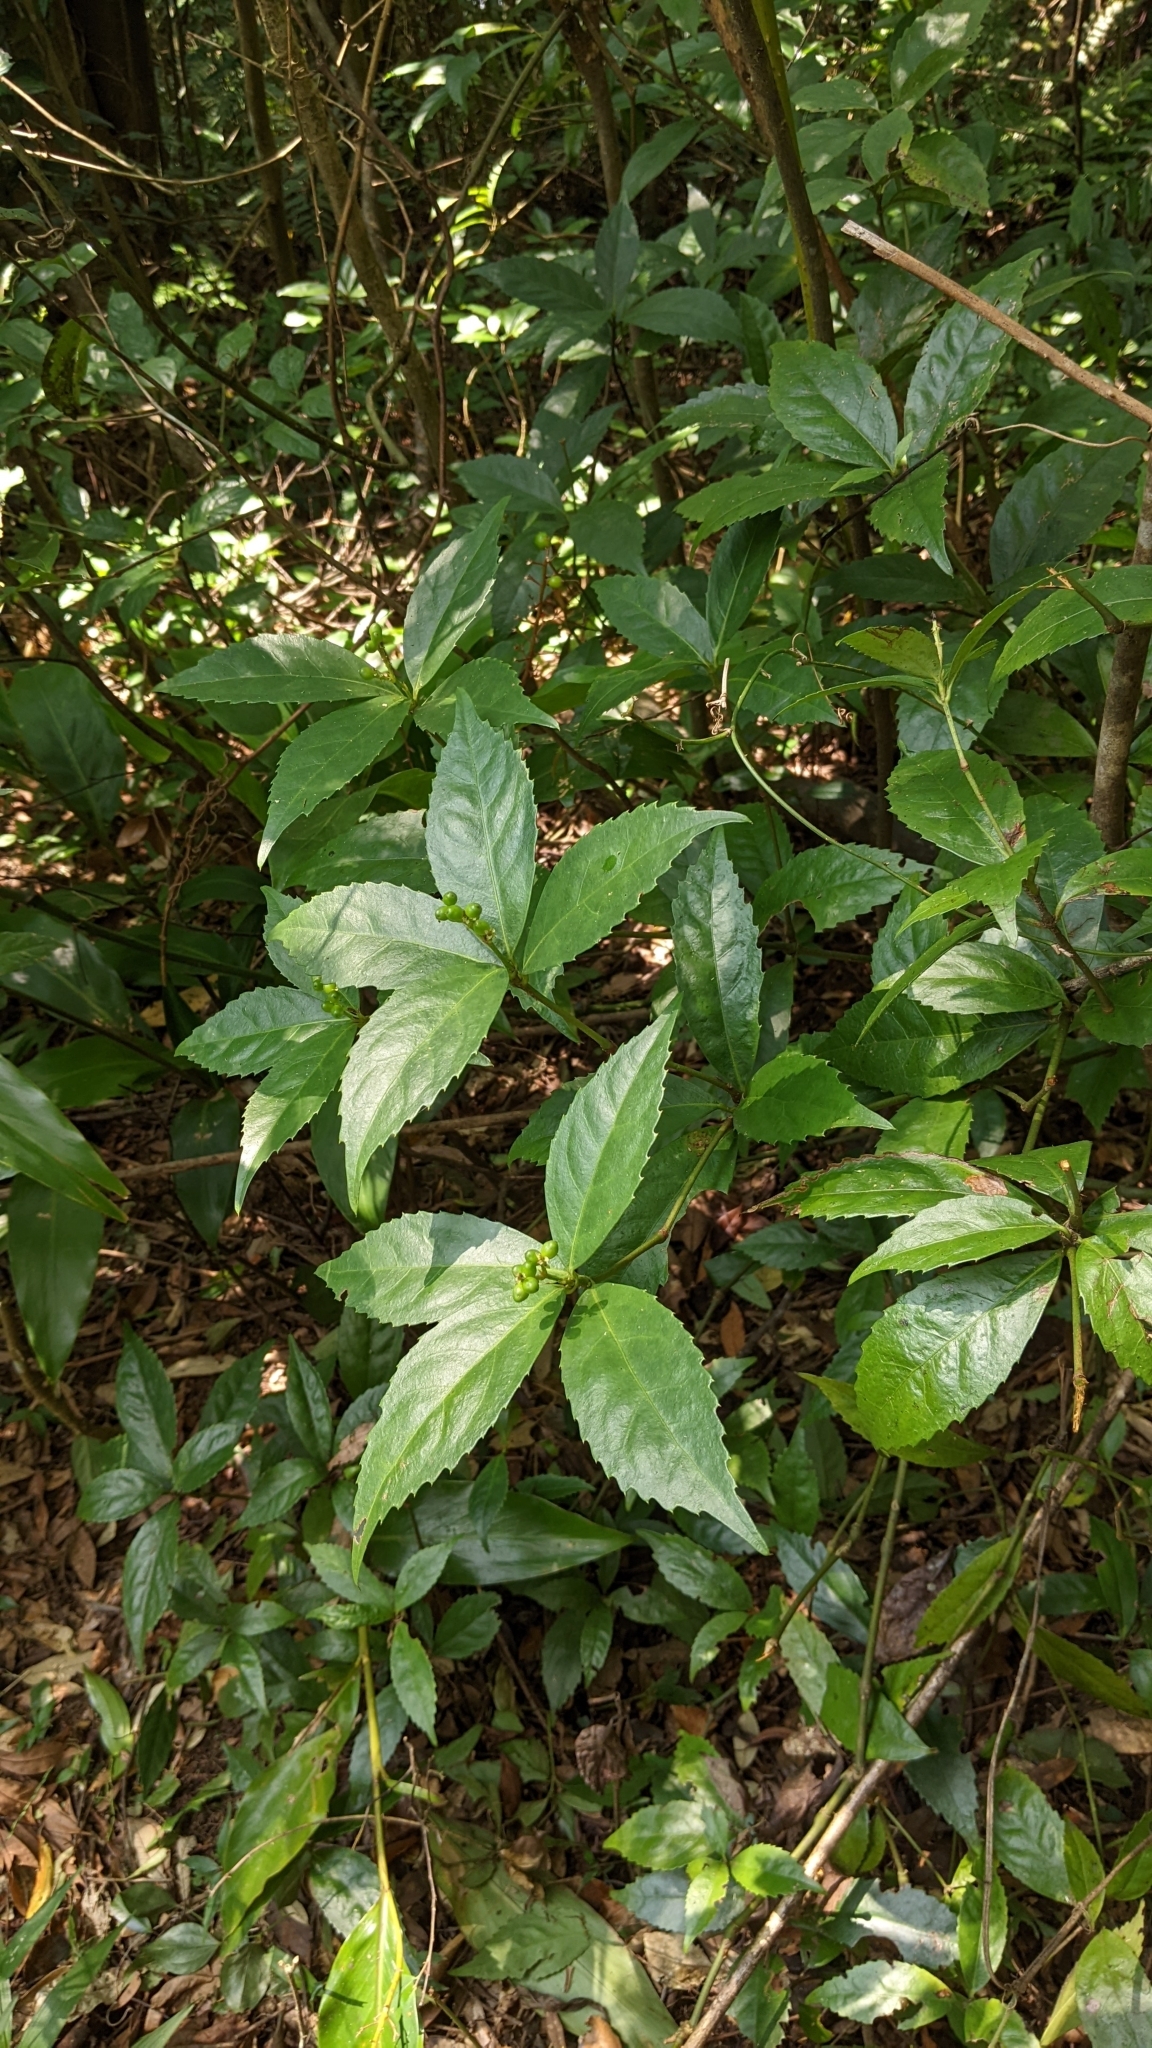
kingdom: Plantae
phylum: Tracheophyta
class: Magnoliopsida
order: Chloranthales
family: Chloranthaceae
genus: Sarcandra
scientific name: Sarcandra glabra
